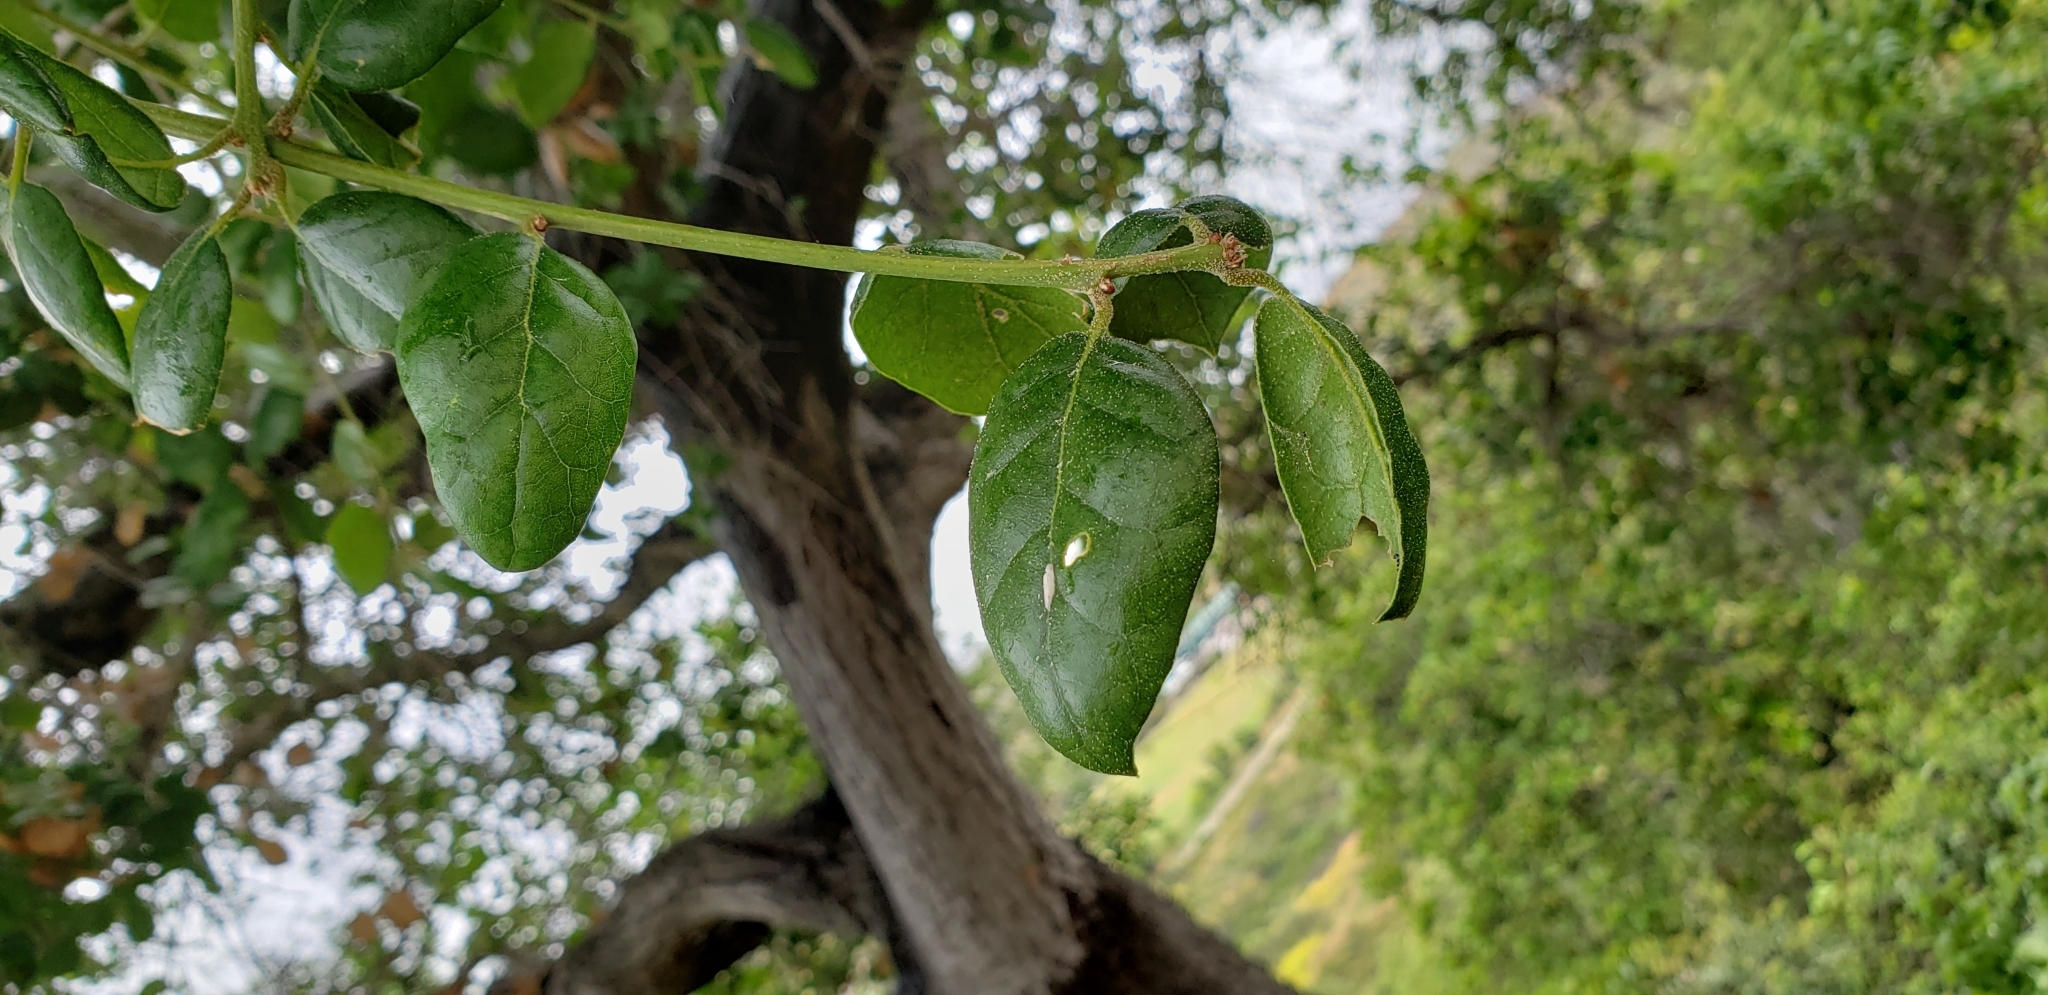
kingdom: Plantae
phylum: Tracheophyta
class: Magnoliopsida
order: Fagales
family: Fagaceae
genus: Quercus
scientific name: Quercus agrifolia
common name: California live oak
